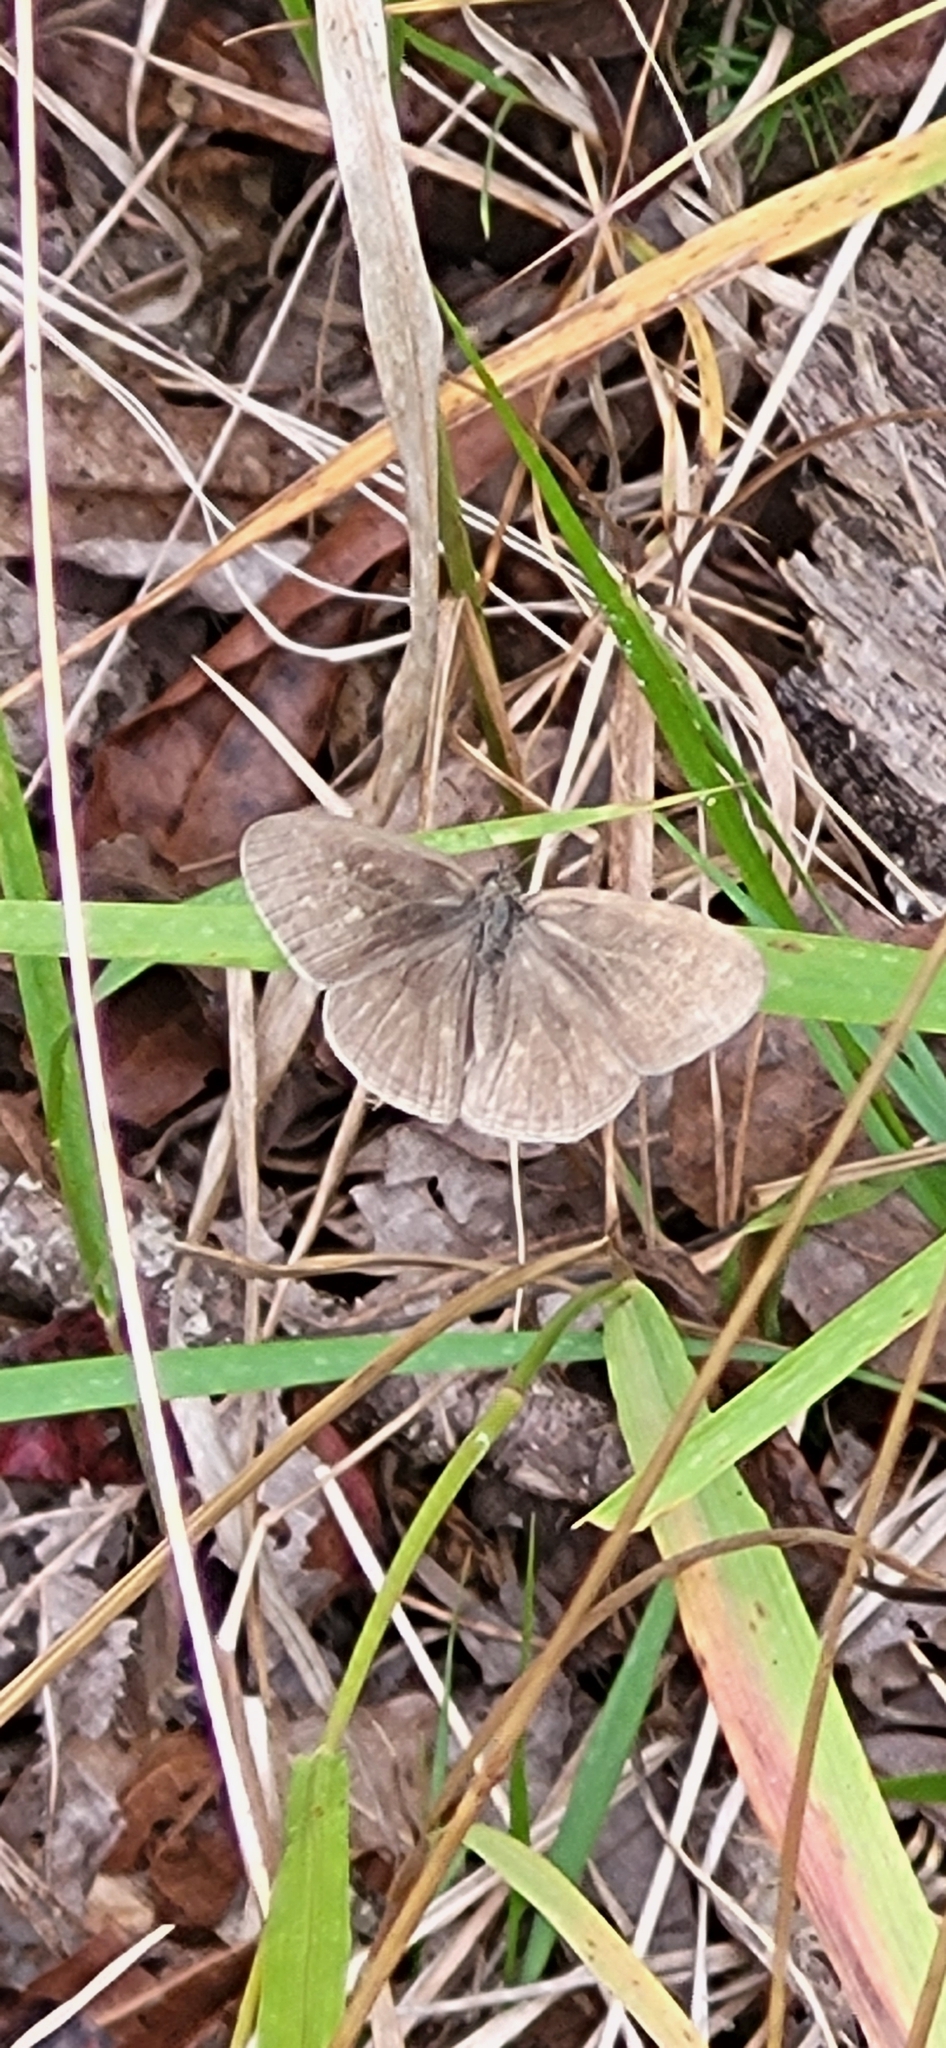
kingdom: Animalia
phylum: Arthropoda
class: Insecta
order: Lepidoptera
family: Nymphalidae
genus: Hermeuptychia
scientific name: Hermeuptychia hermes
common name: Hermes satyr
